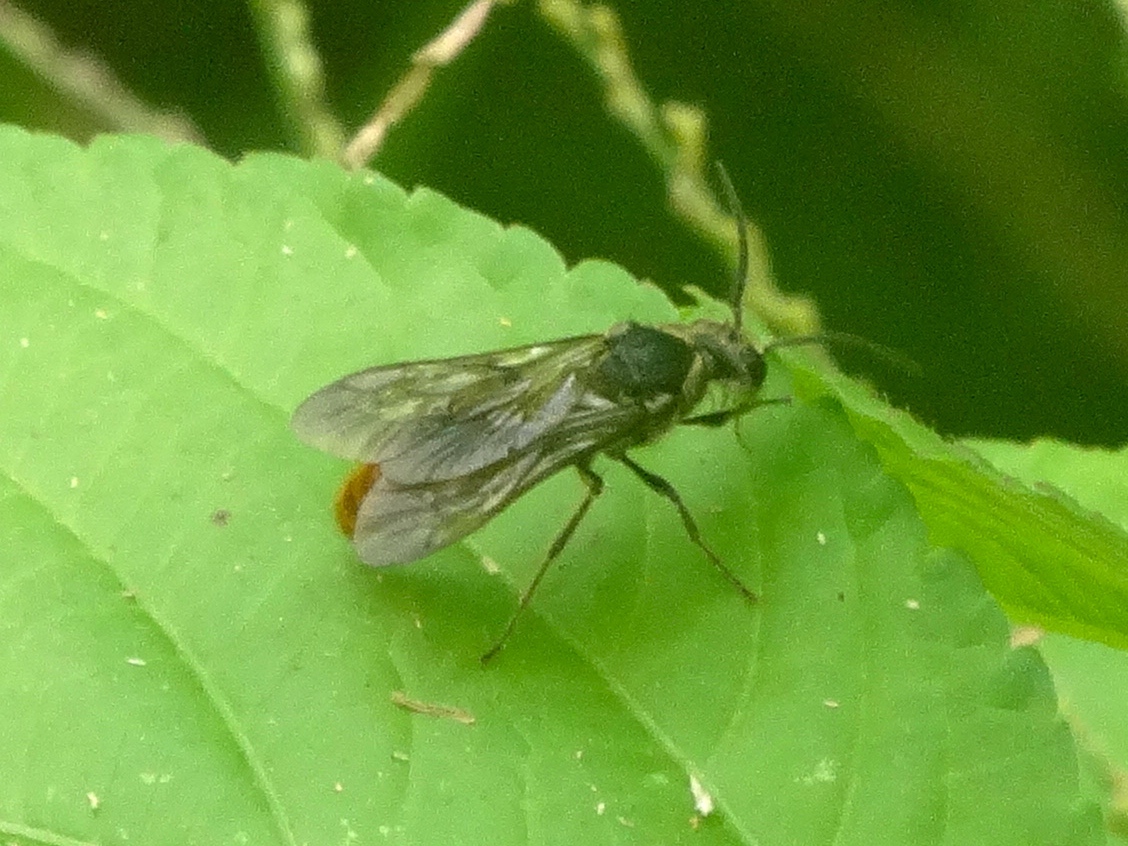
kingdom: Animalia
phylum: Arthropoda
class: Insecta
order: Hymenoptera
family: Mutillidae
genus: Timulla
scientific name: Timulla
